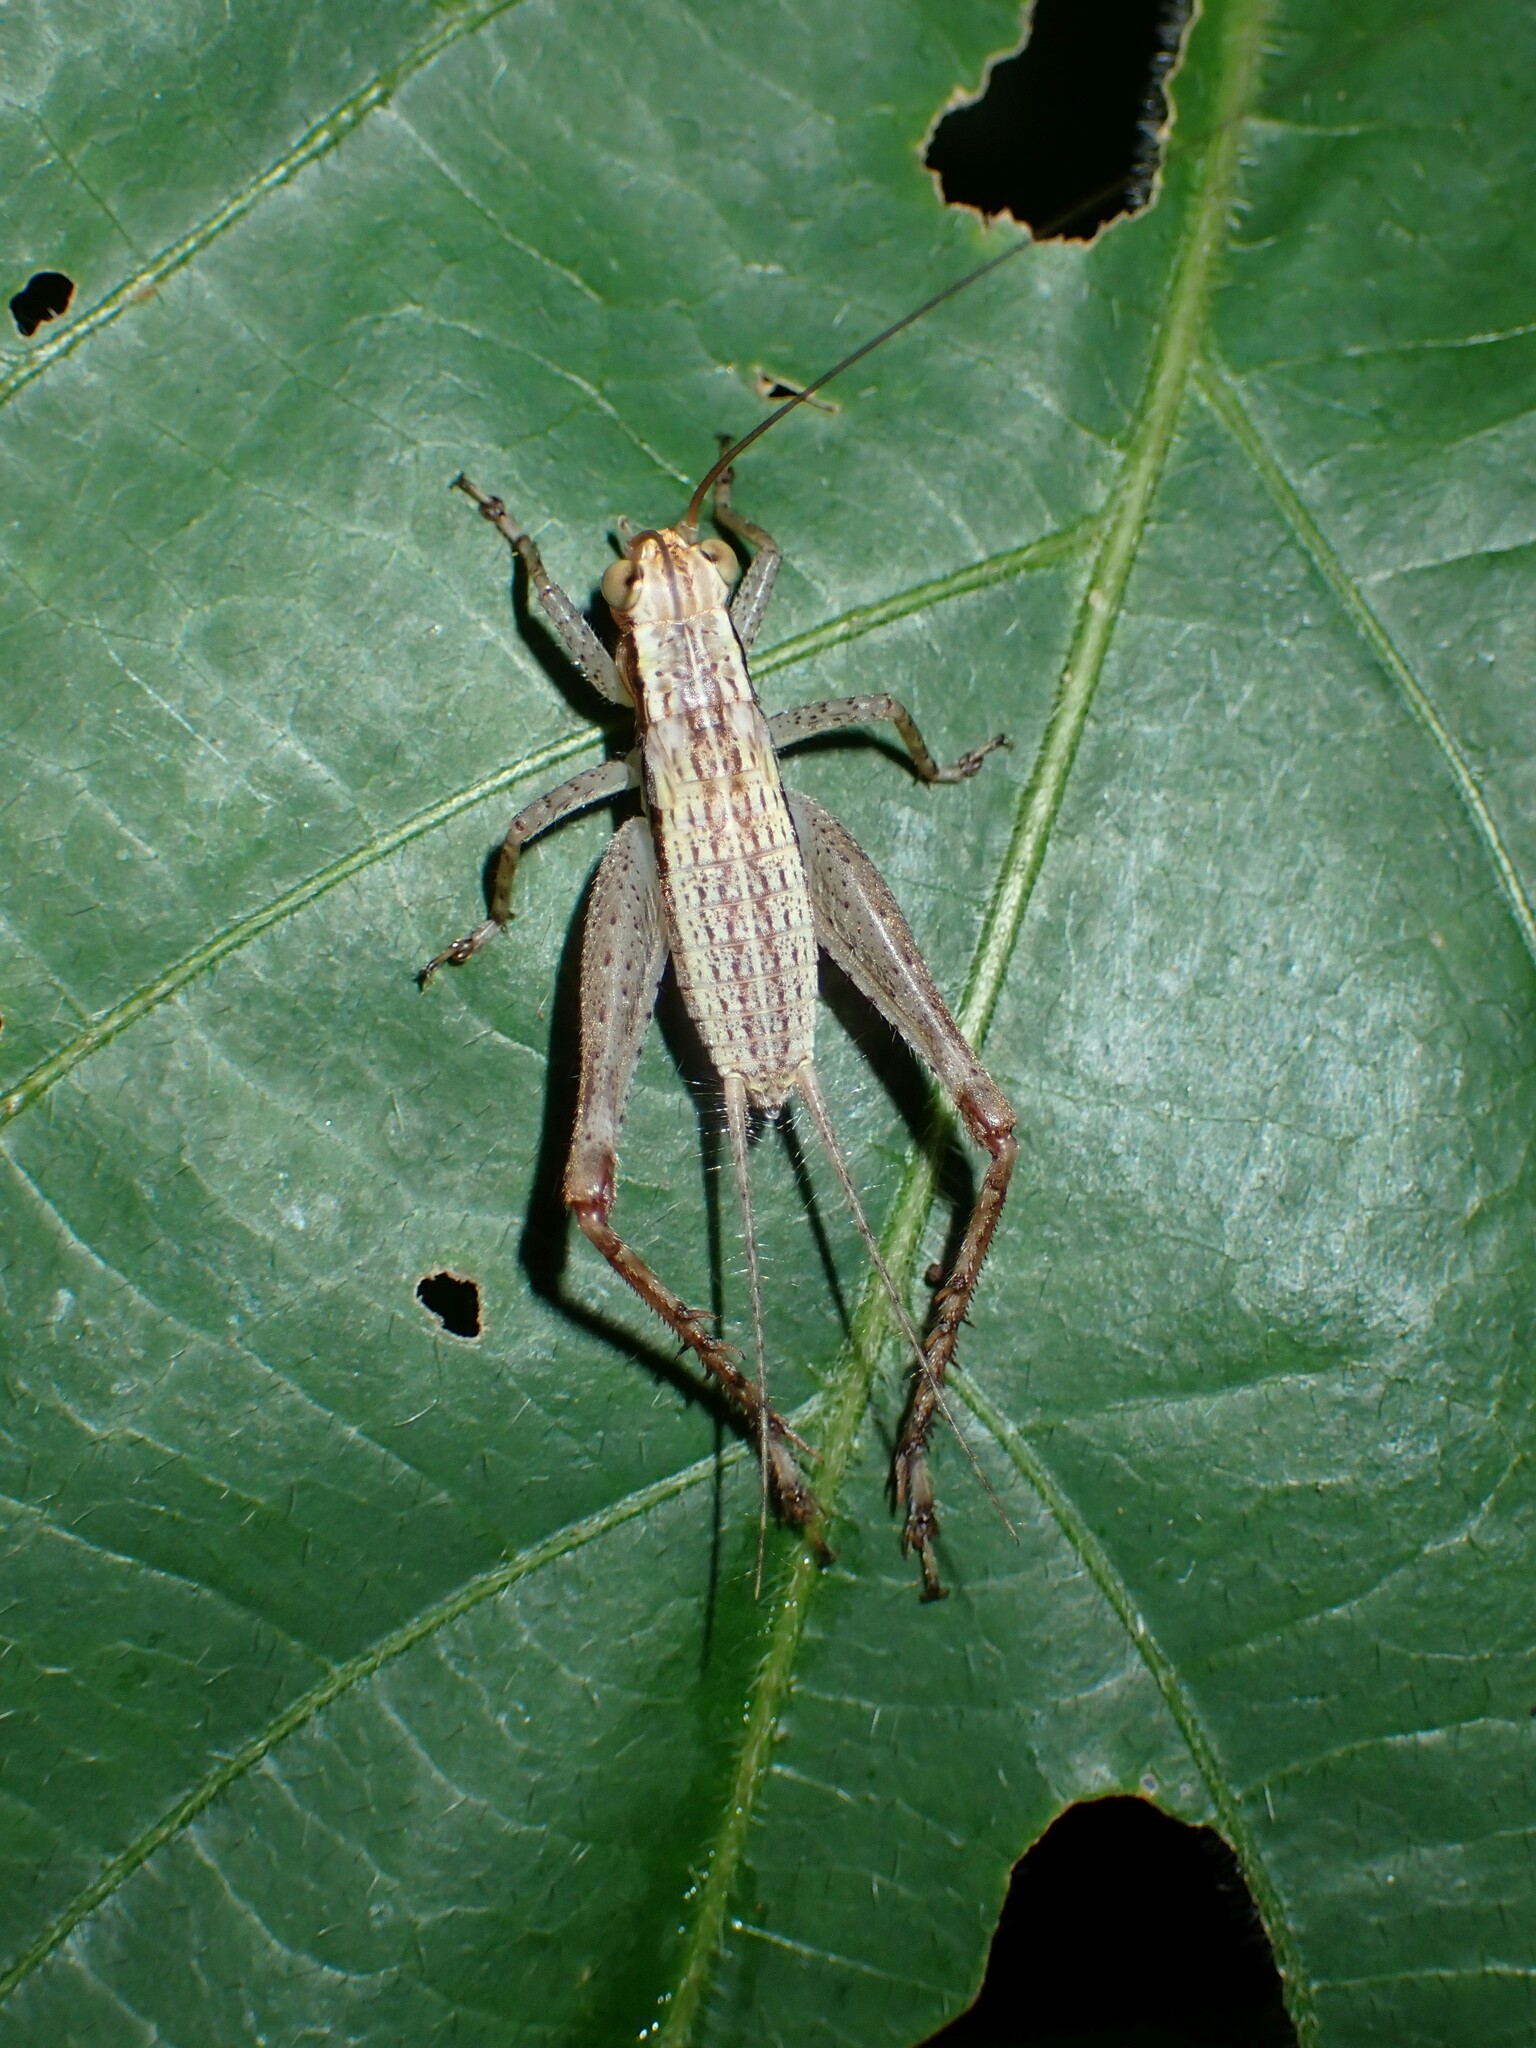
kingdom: Animalia
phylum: Arthropoda
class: Insecta
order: Orthoptera
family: Gryllidae
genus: Cardiodactylus
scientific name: Cardiodactylus novaeguineae
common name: Sad cricket
